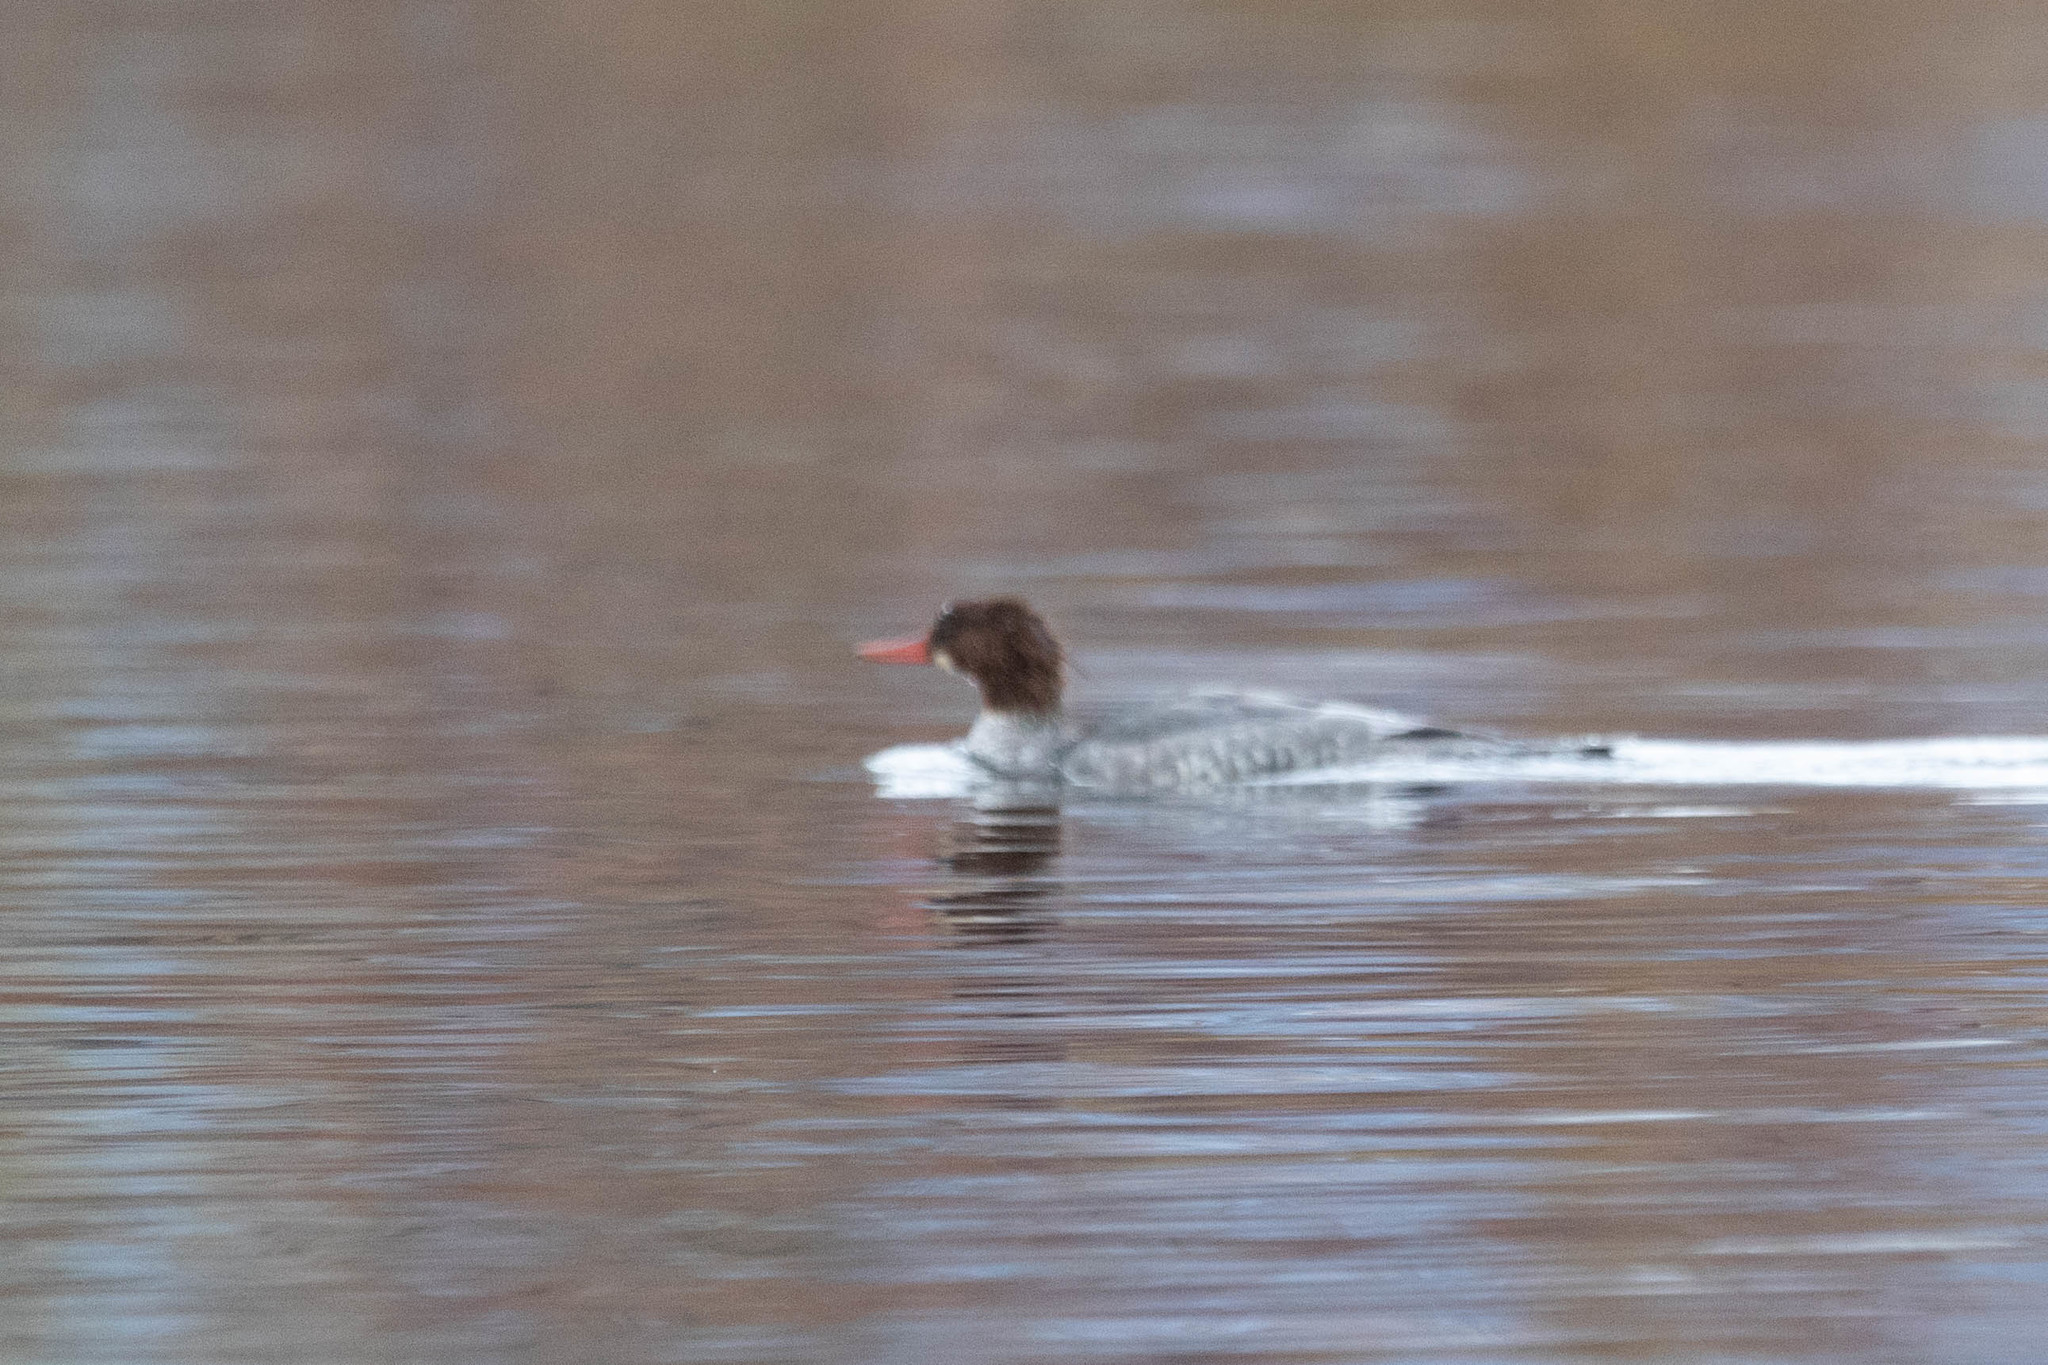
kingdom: Animalia
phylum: Chordata
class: Aves
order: Anseriformes
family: Anatidae
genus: Mergus
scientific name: Mergus merganser
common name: Common merganser
